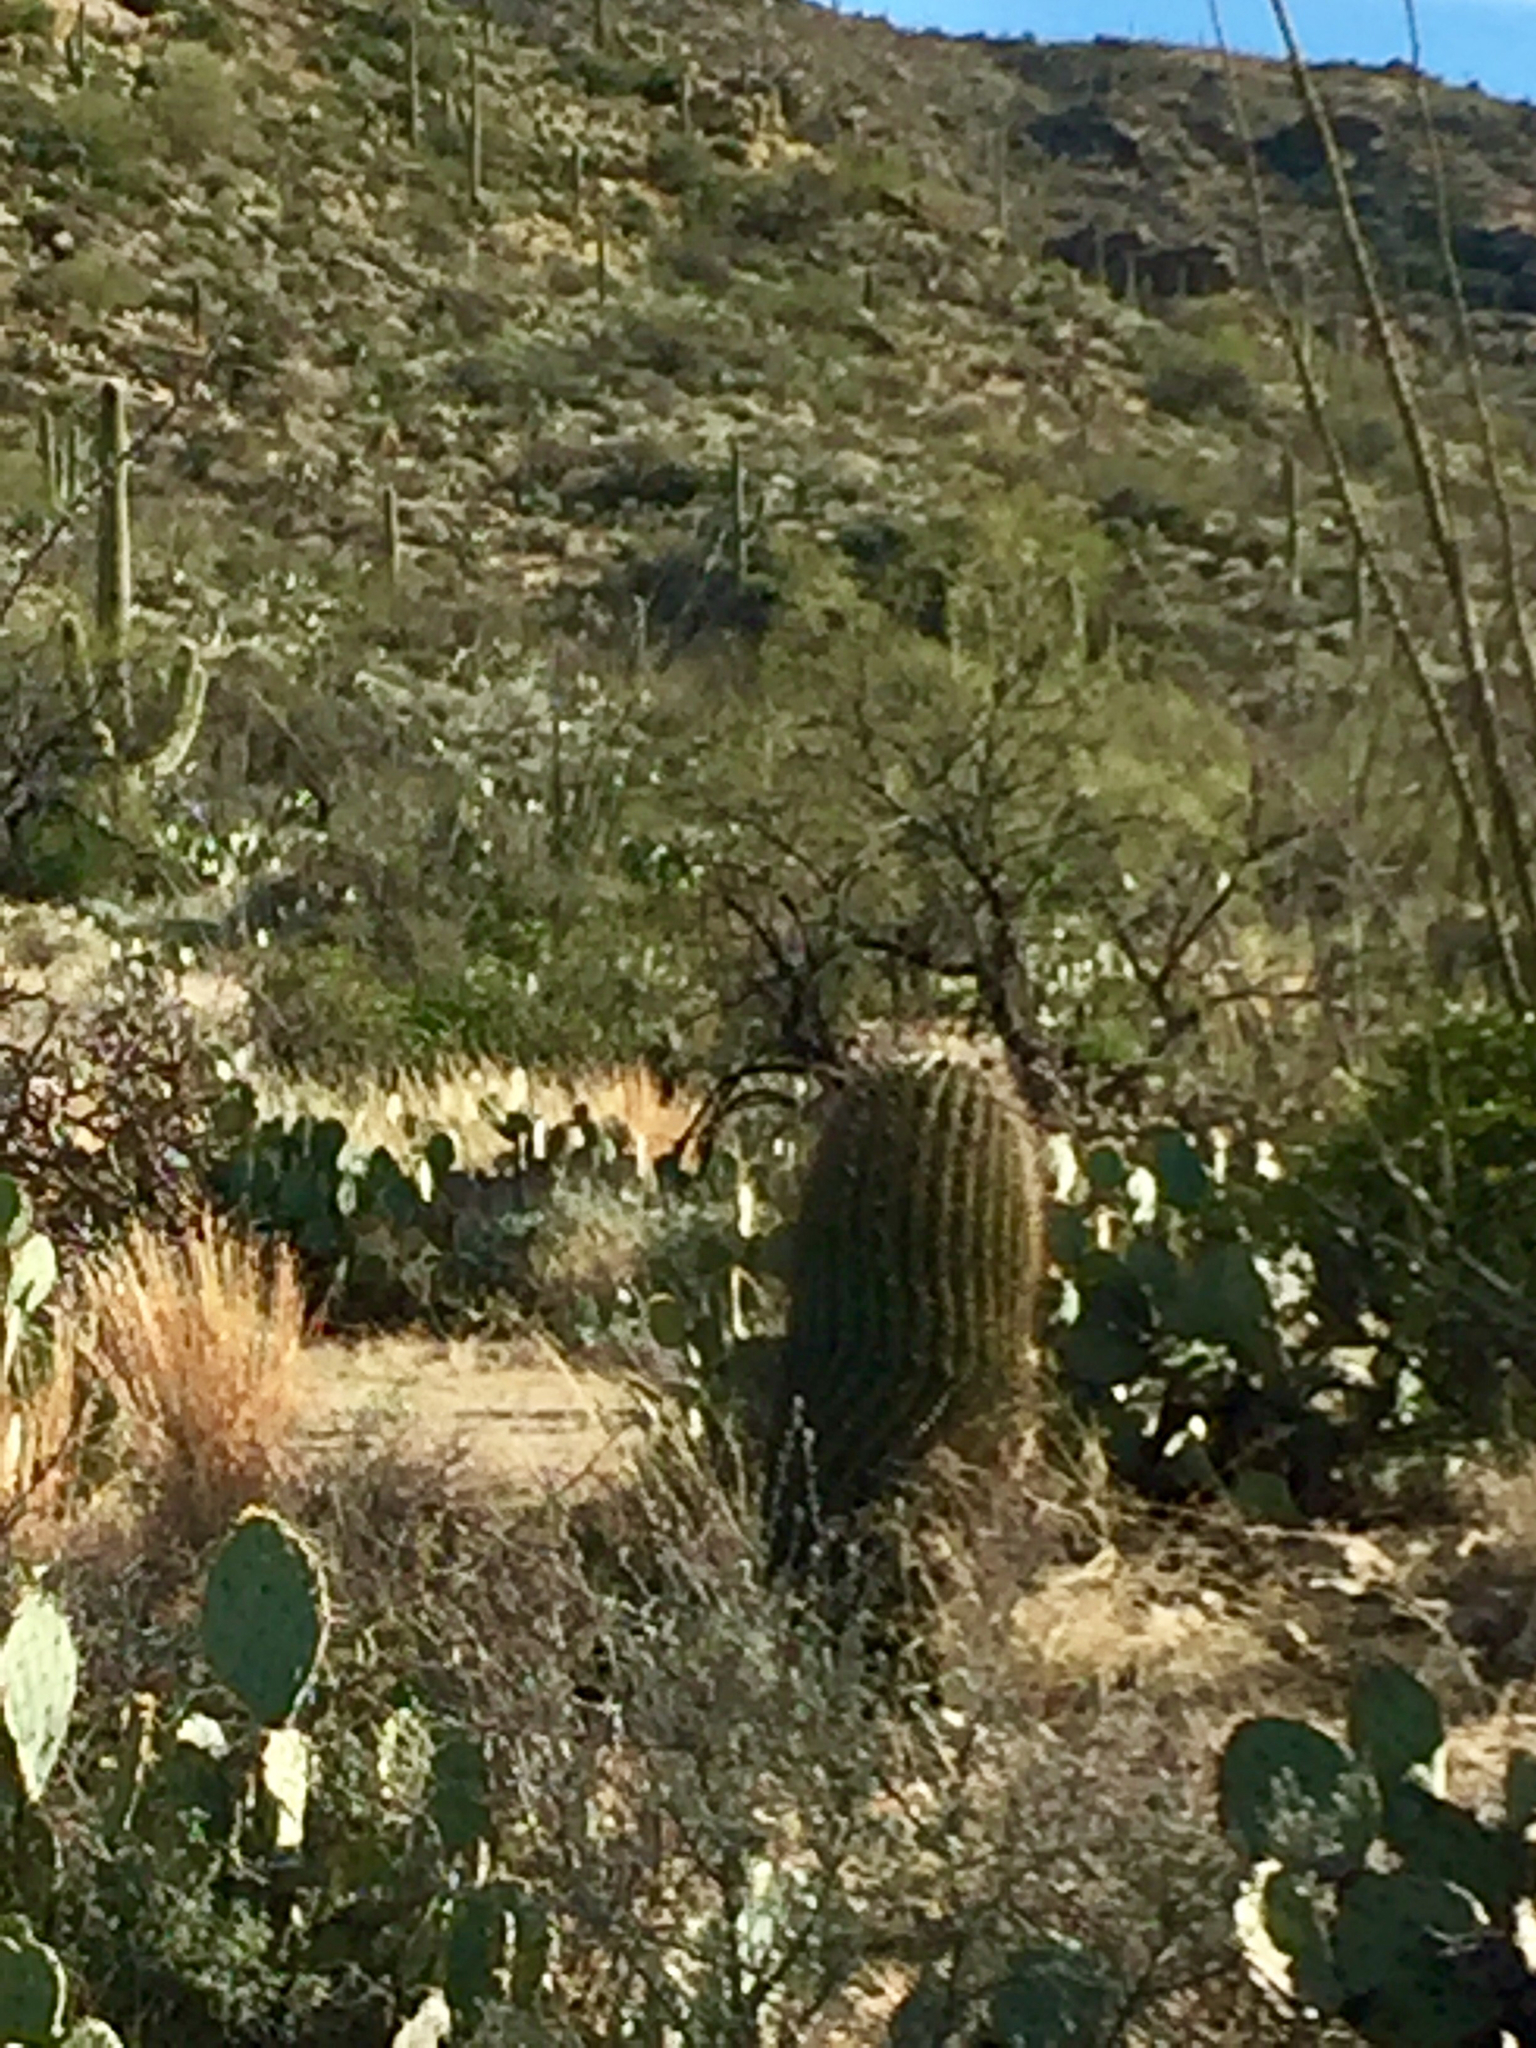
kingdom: Plantae
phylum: Tracheophyta
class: Magnoliopsida
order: Caryophyllales
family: Cactaceae
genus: Ferocactus
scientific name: Ferocactus wislizeni
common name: Candy barrel cactus
